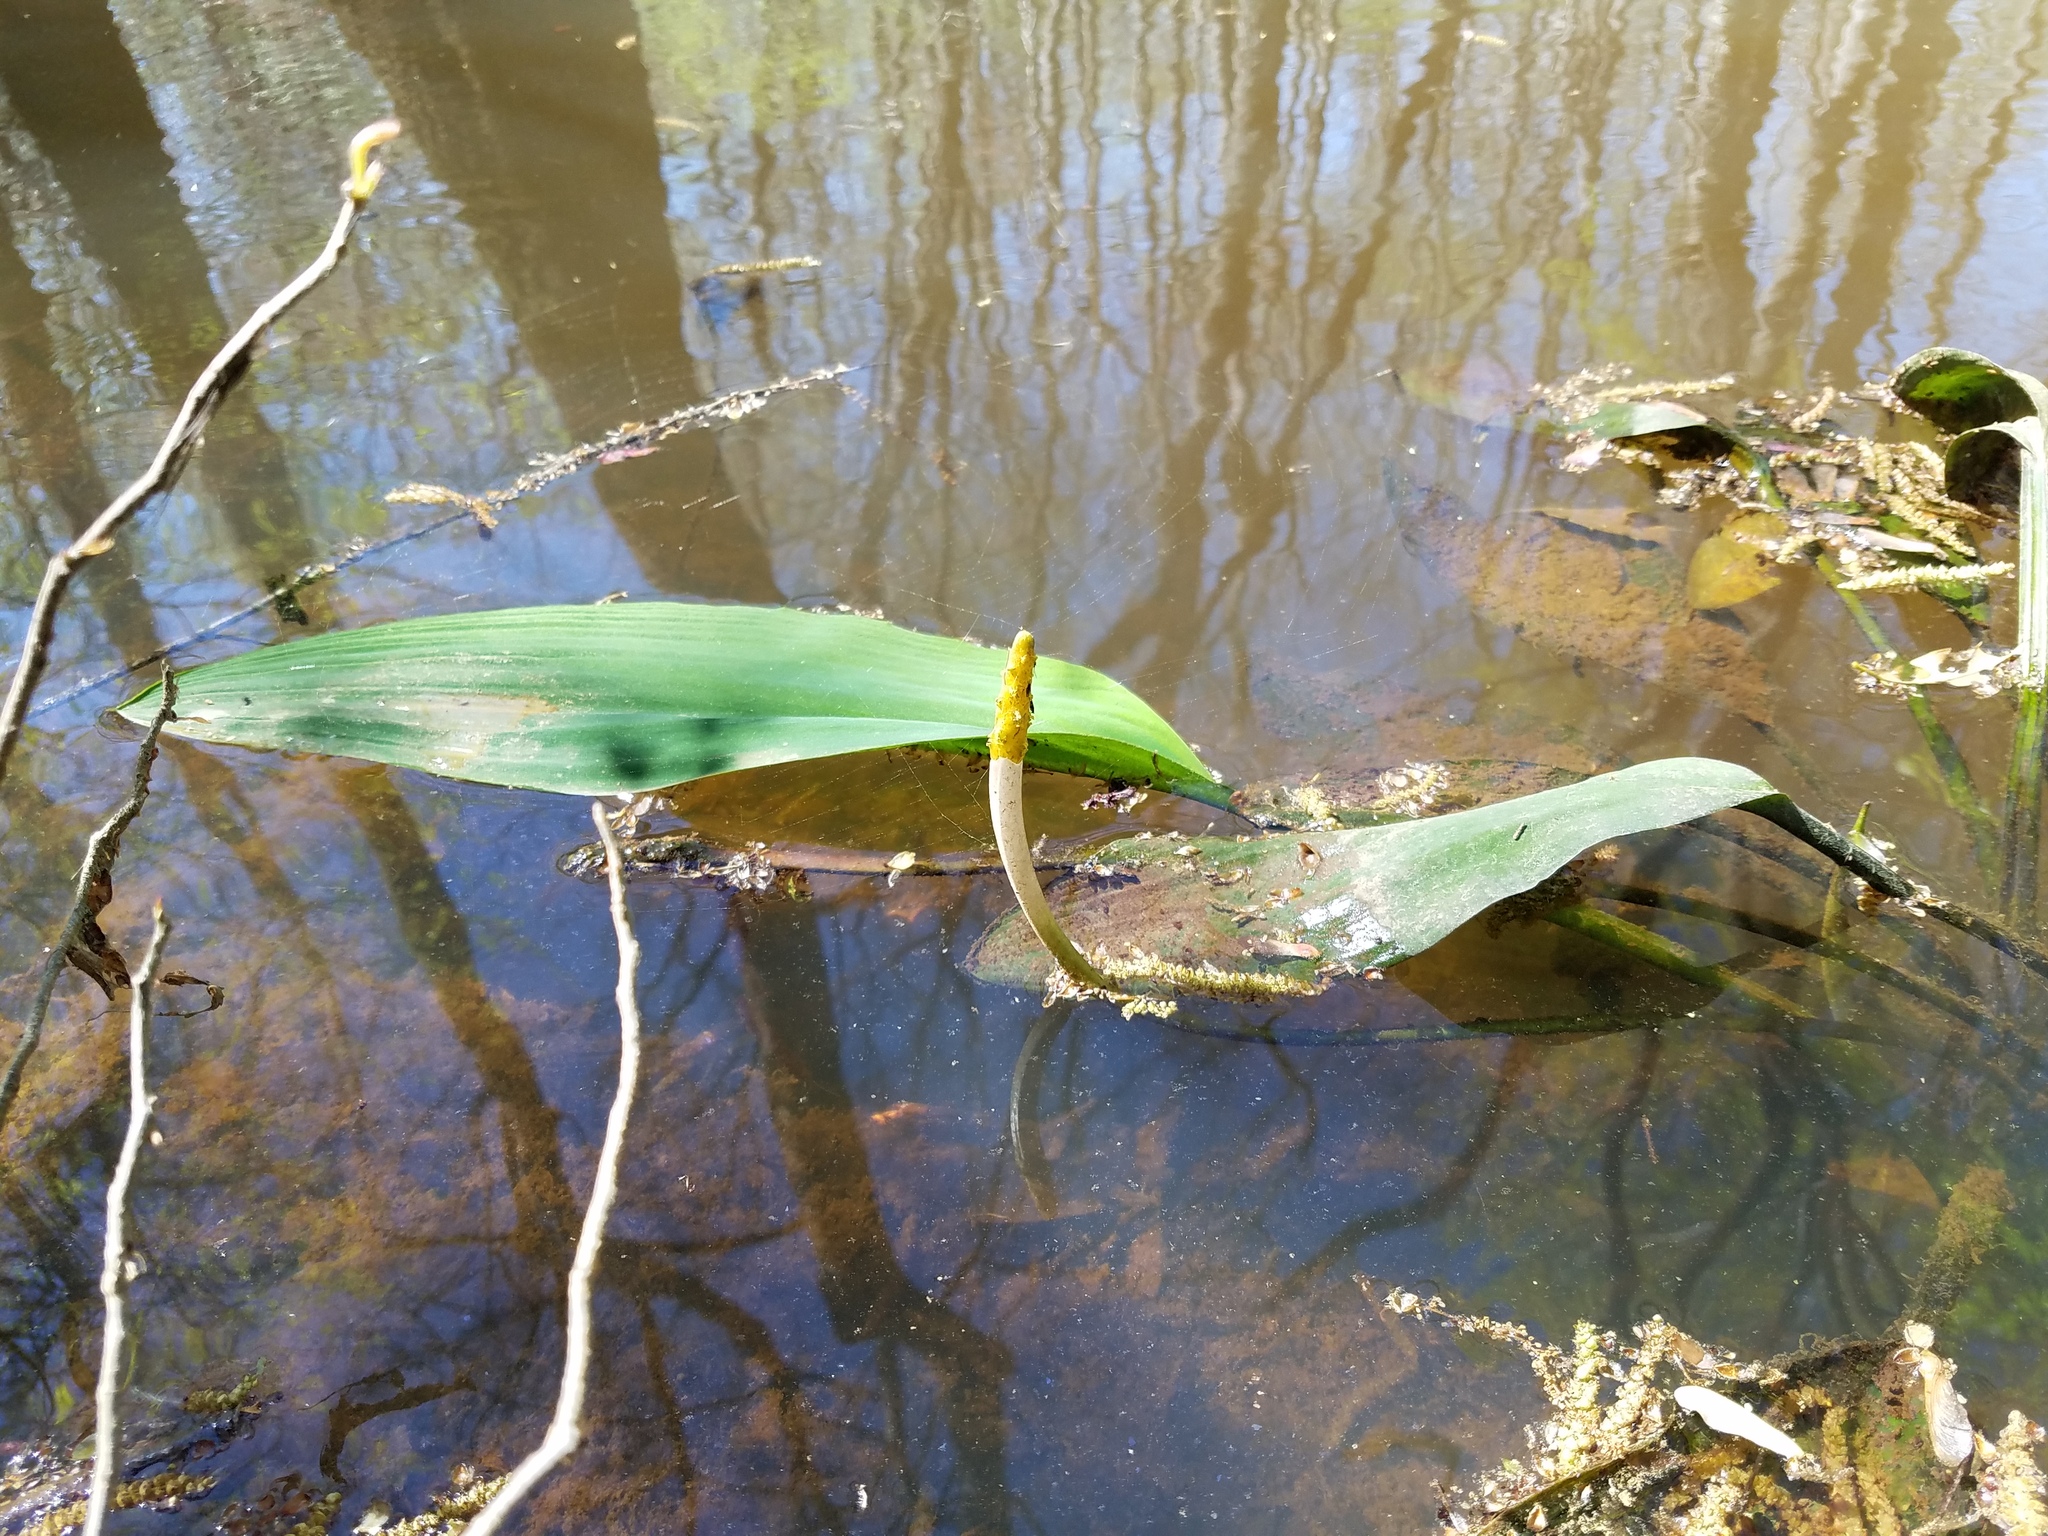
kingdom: Plantae
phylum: Tracheophyta
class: Liliopsida
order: Alismatales
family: Araceae
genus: Orontium
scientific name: Orontium aquaticum
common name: Golden-club
